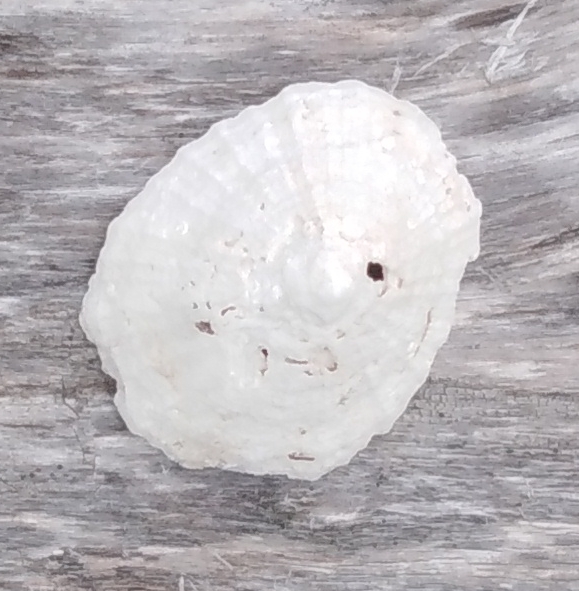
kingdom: Animalia
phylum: Mollusca
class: Gastropoda
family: Lottiidae
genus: Niveotectura
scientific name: Niveotectura pallida
